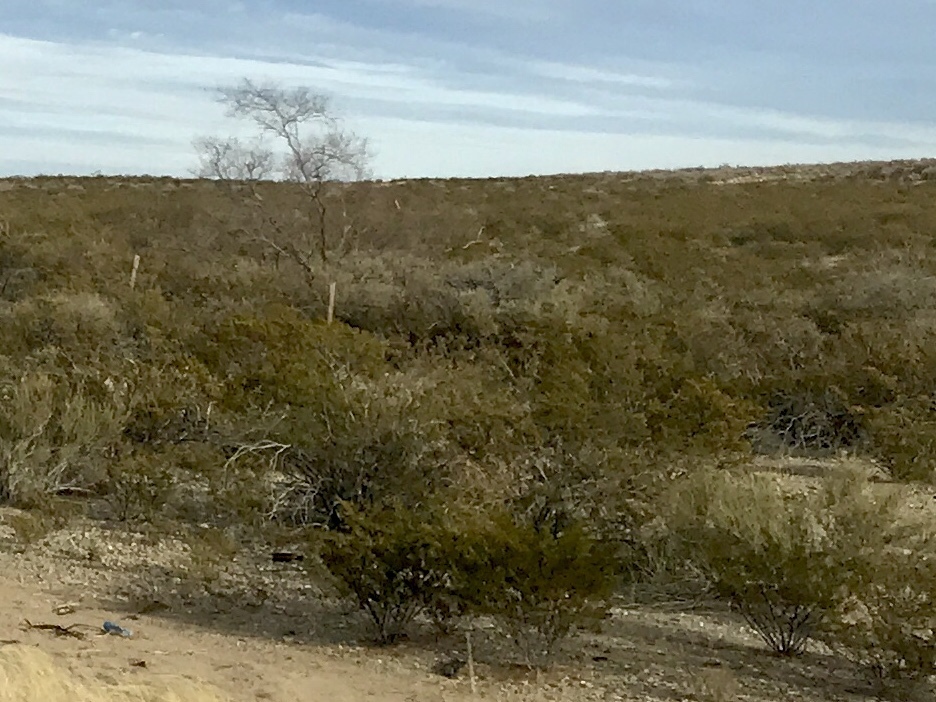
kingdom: Plantae
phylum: Tracheophyta
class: Magnoliopsida
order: Zygophyllales
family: Zygophyllaceae
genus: Larrea
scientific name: Larrea tridentata
